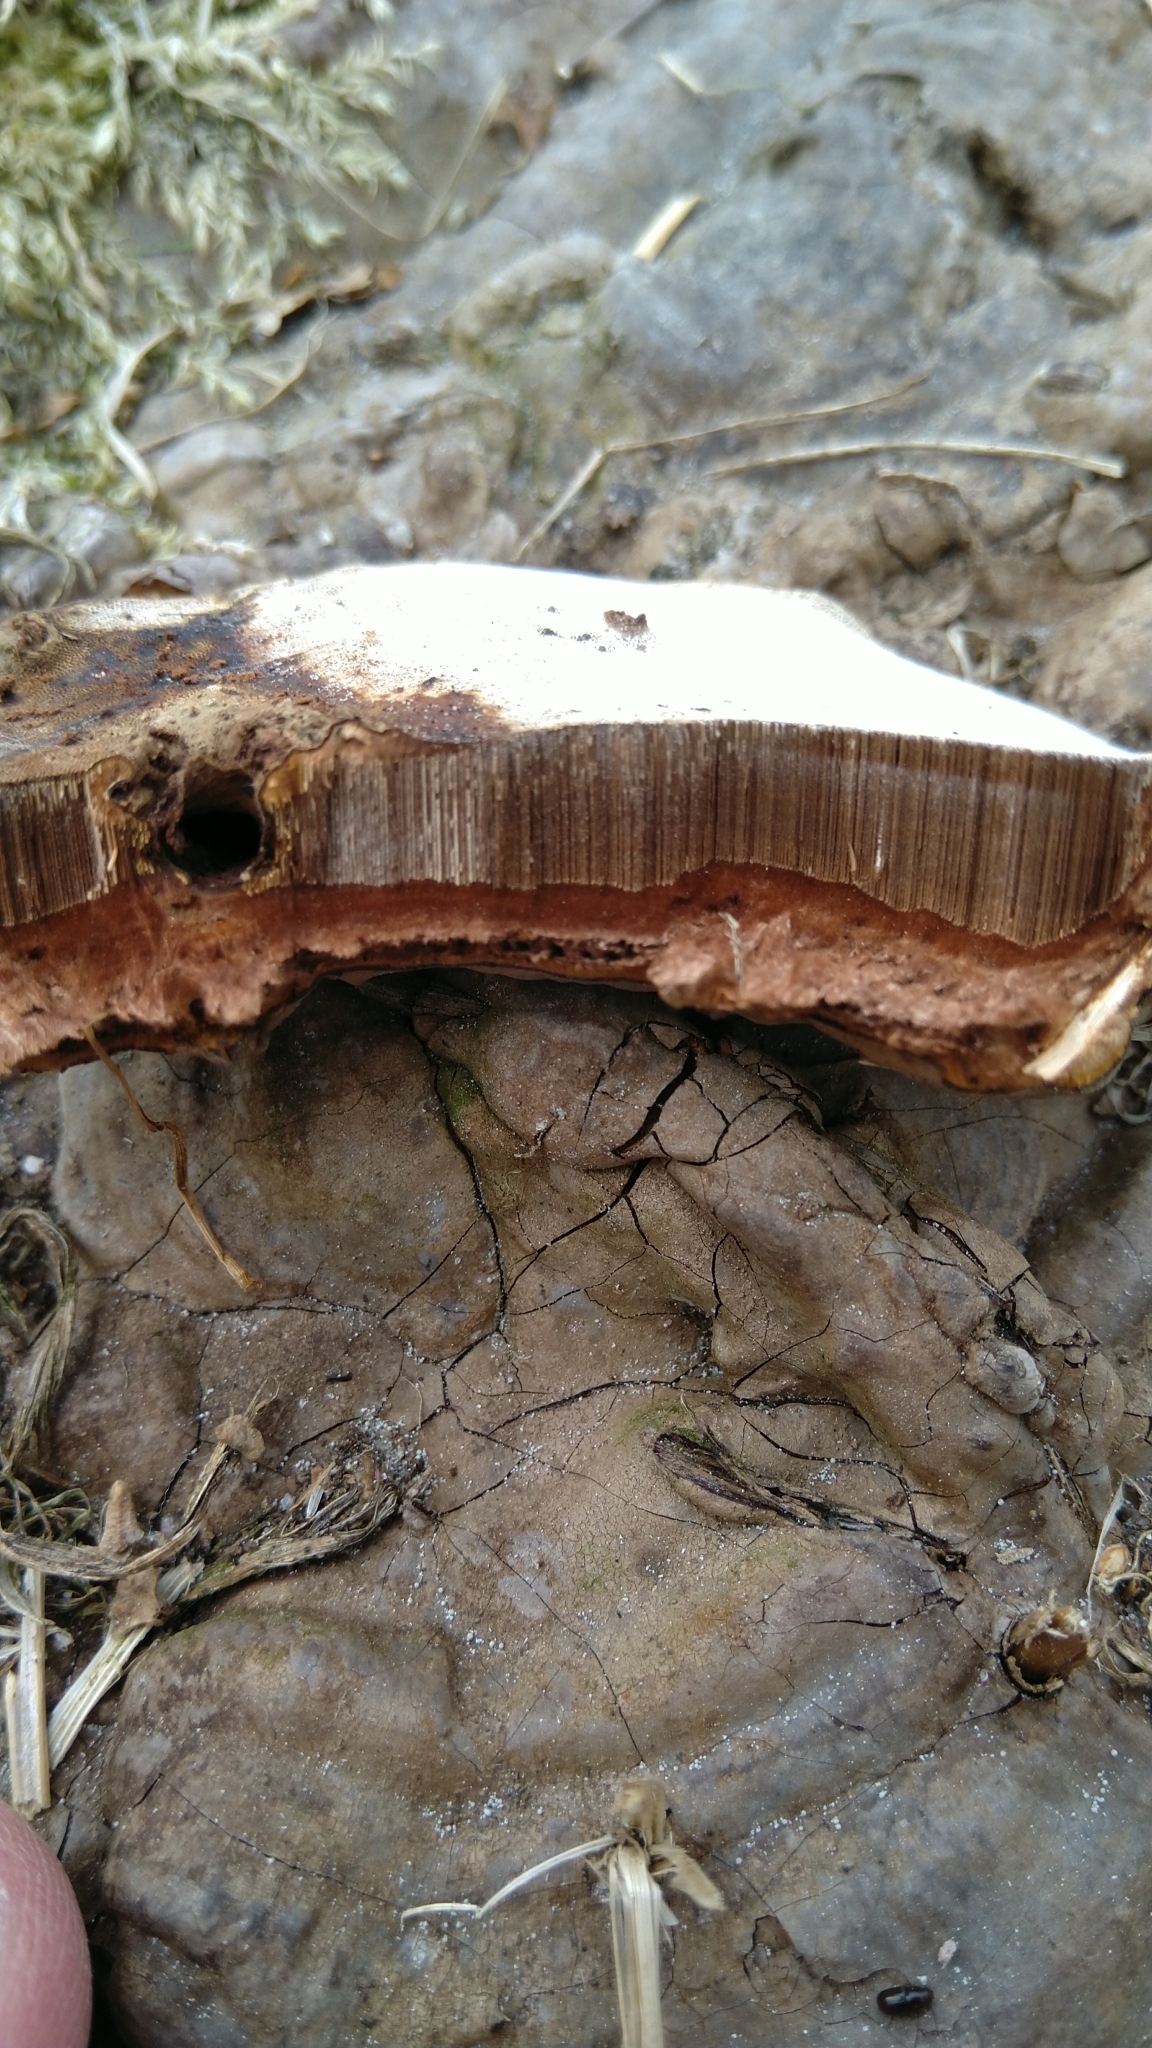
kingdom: Fungi
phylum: Basidiomycota
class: Agaricomycetes
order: Polyporales
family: Polyporaceae
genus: Ganoderma
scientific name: Ganoderma applanatum
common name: Artist's bracket
